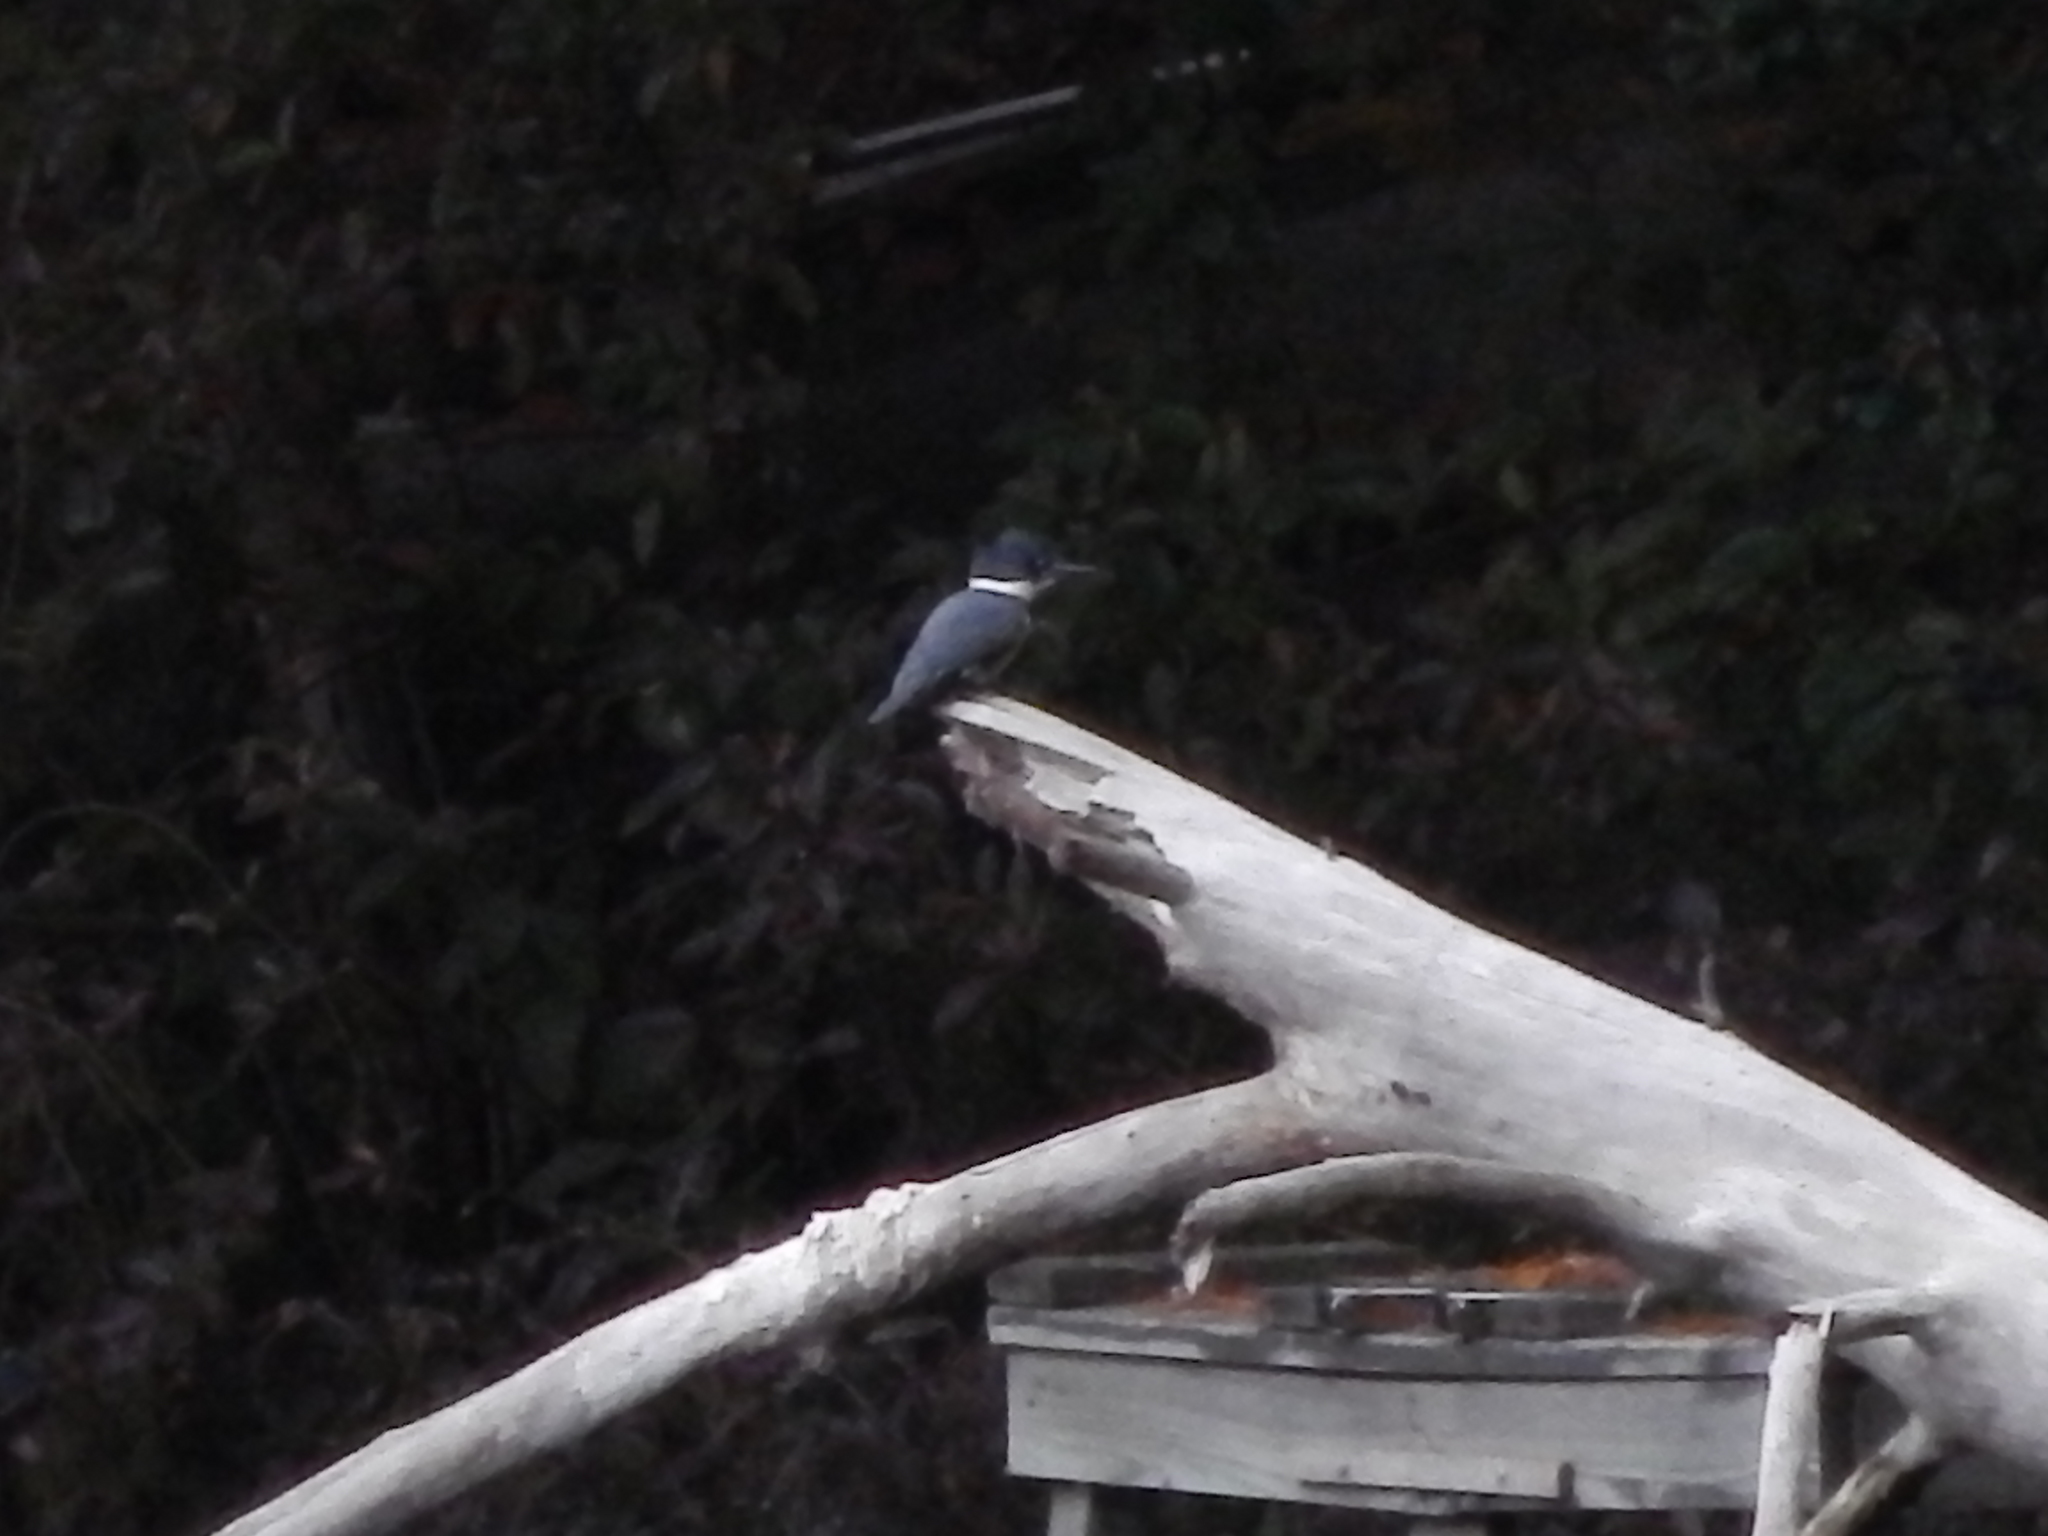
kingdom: Animalia
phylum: Chordata
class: Aves
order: Coraciiformes
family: Alcedinidae
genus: Megaceryle
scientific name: Megaceryle alcyon
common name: Belted kingfisher
